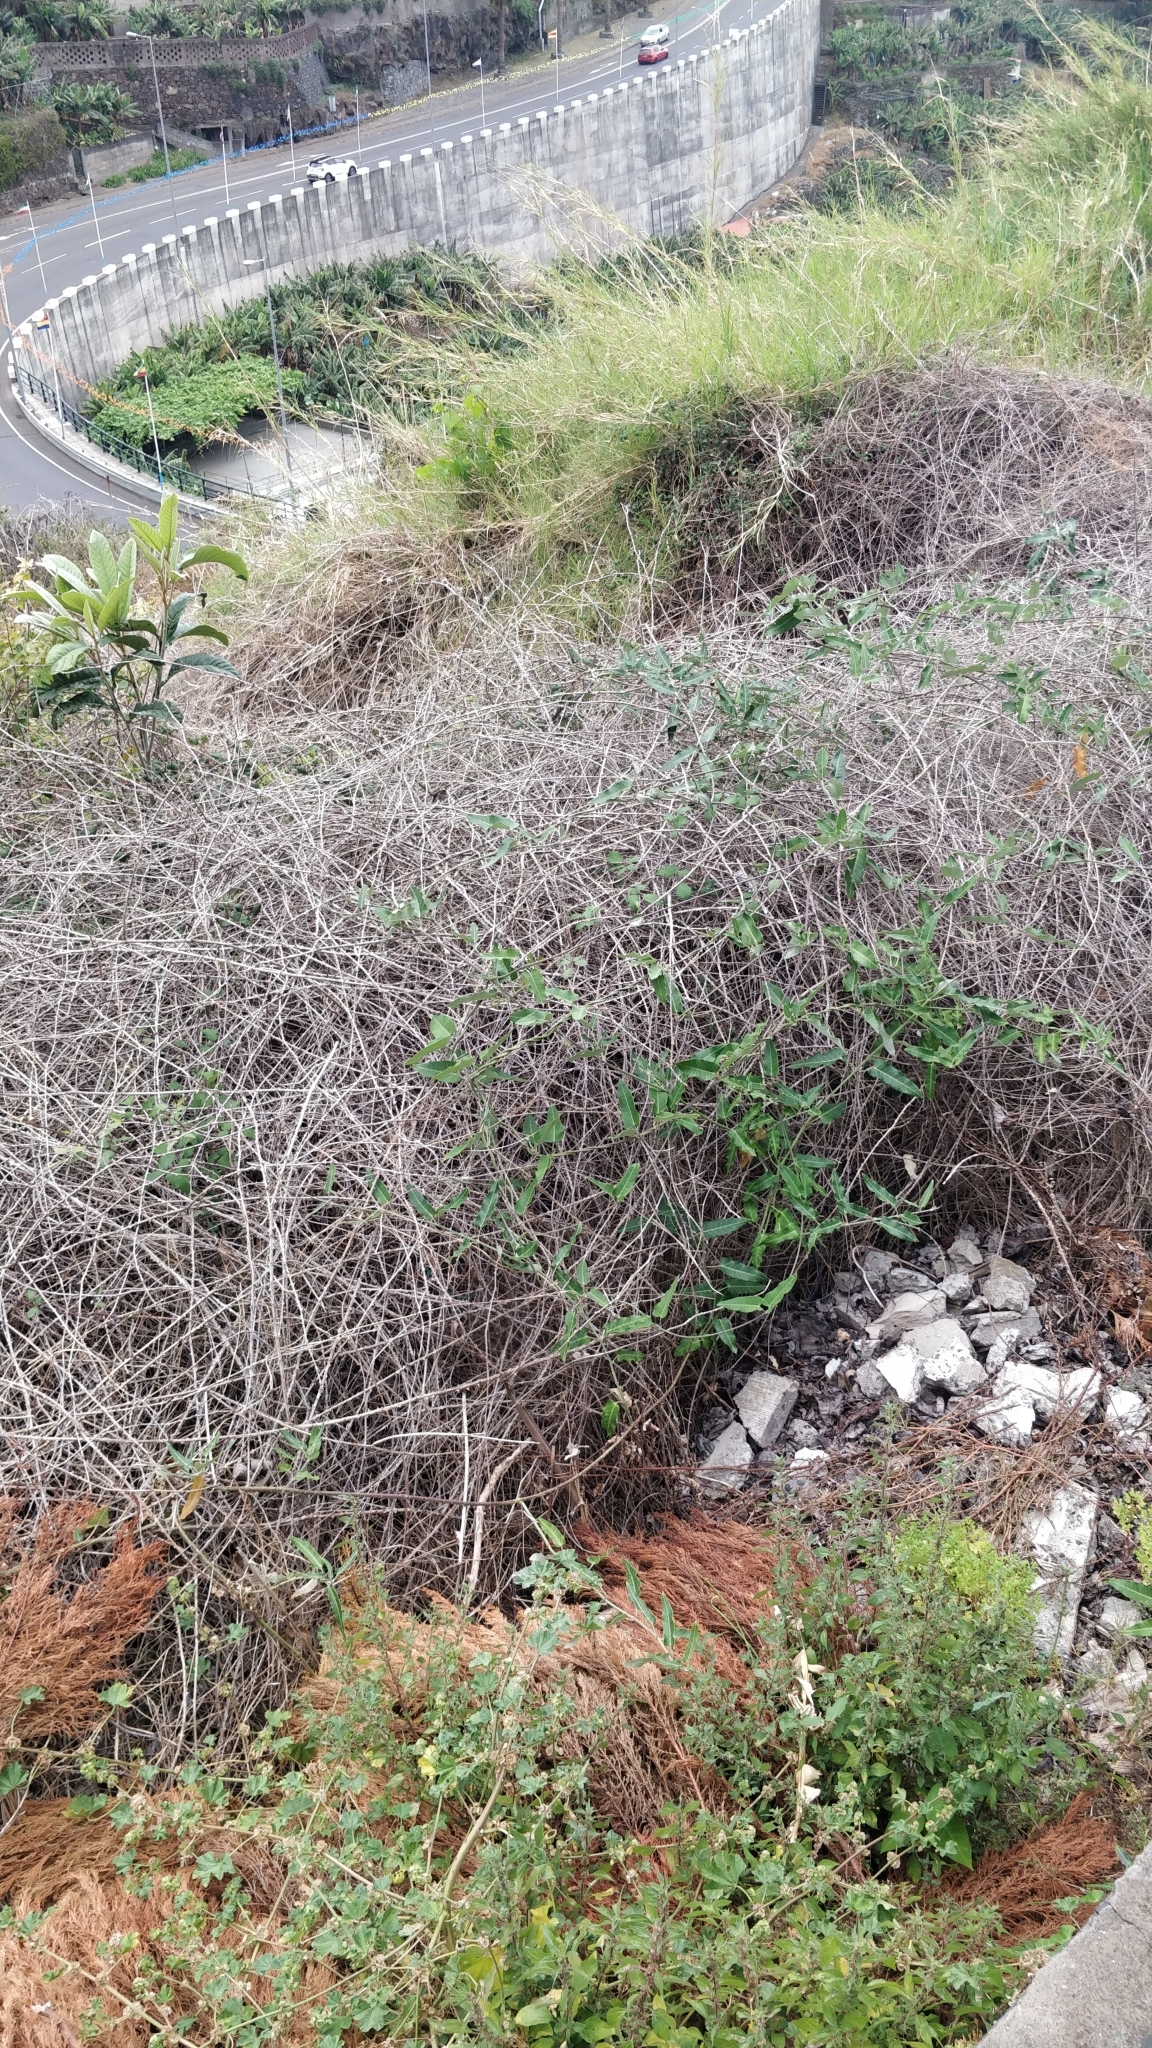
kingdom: Plantae
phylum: Tracheophyta
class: Magnoliopsida
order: Gentianales
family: Apocynaceae
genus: Araujia
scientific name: Araujia sericifera
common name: White bladderflower
